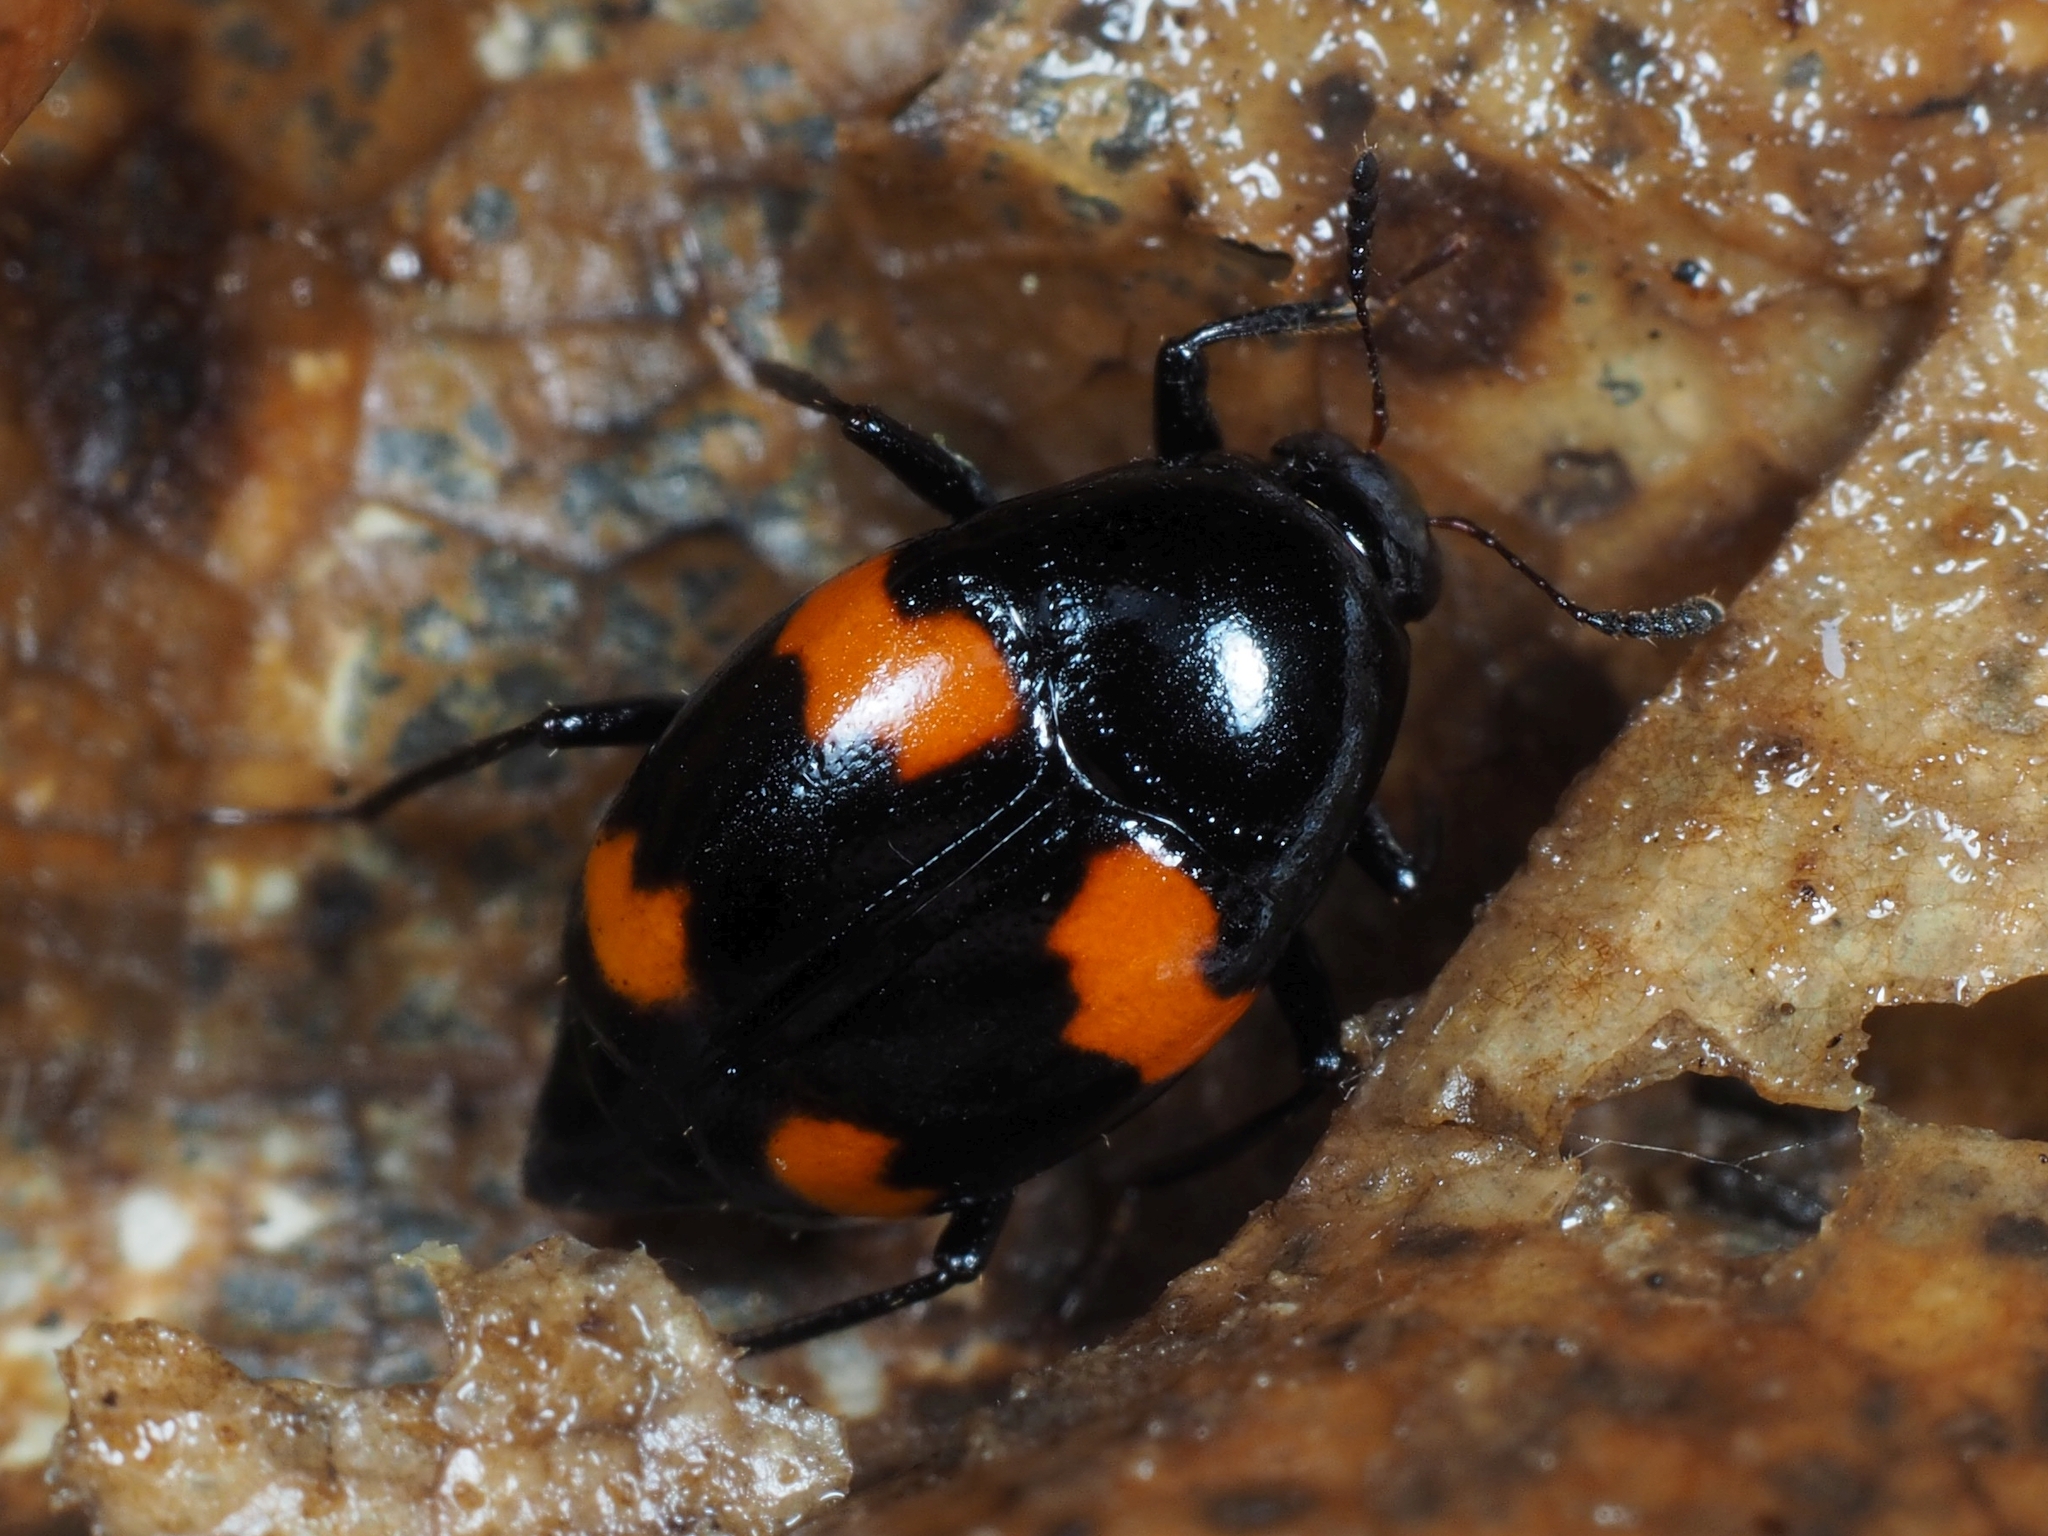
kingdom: Animalia
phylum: Arthropoda
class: Insecta
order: Coleoptera
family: Staphylinidae
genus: Scaphidium
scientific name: Scaphidium quadrimaculatum
